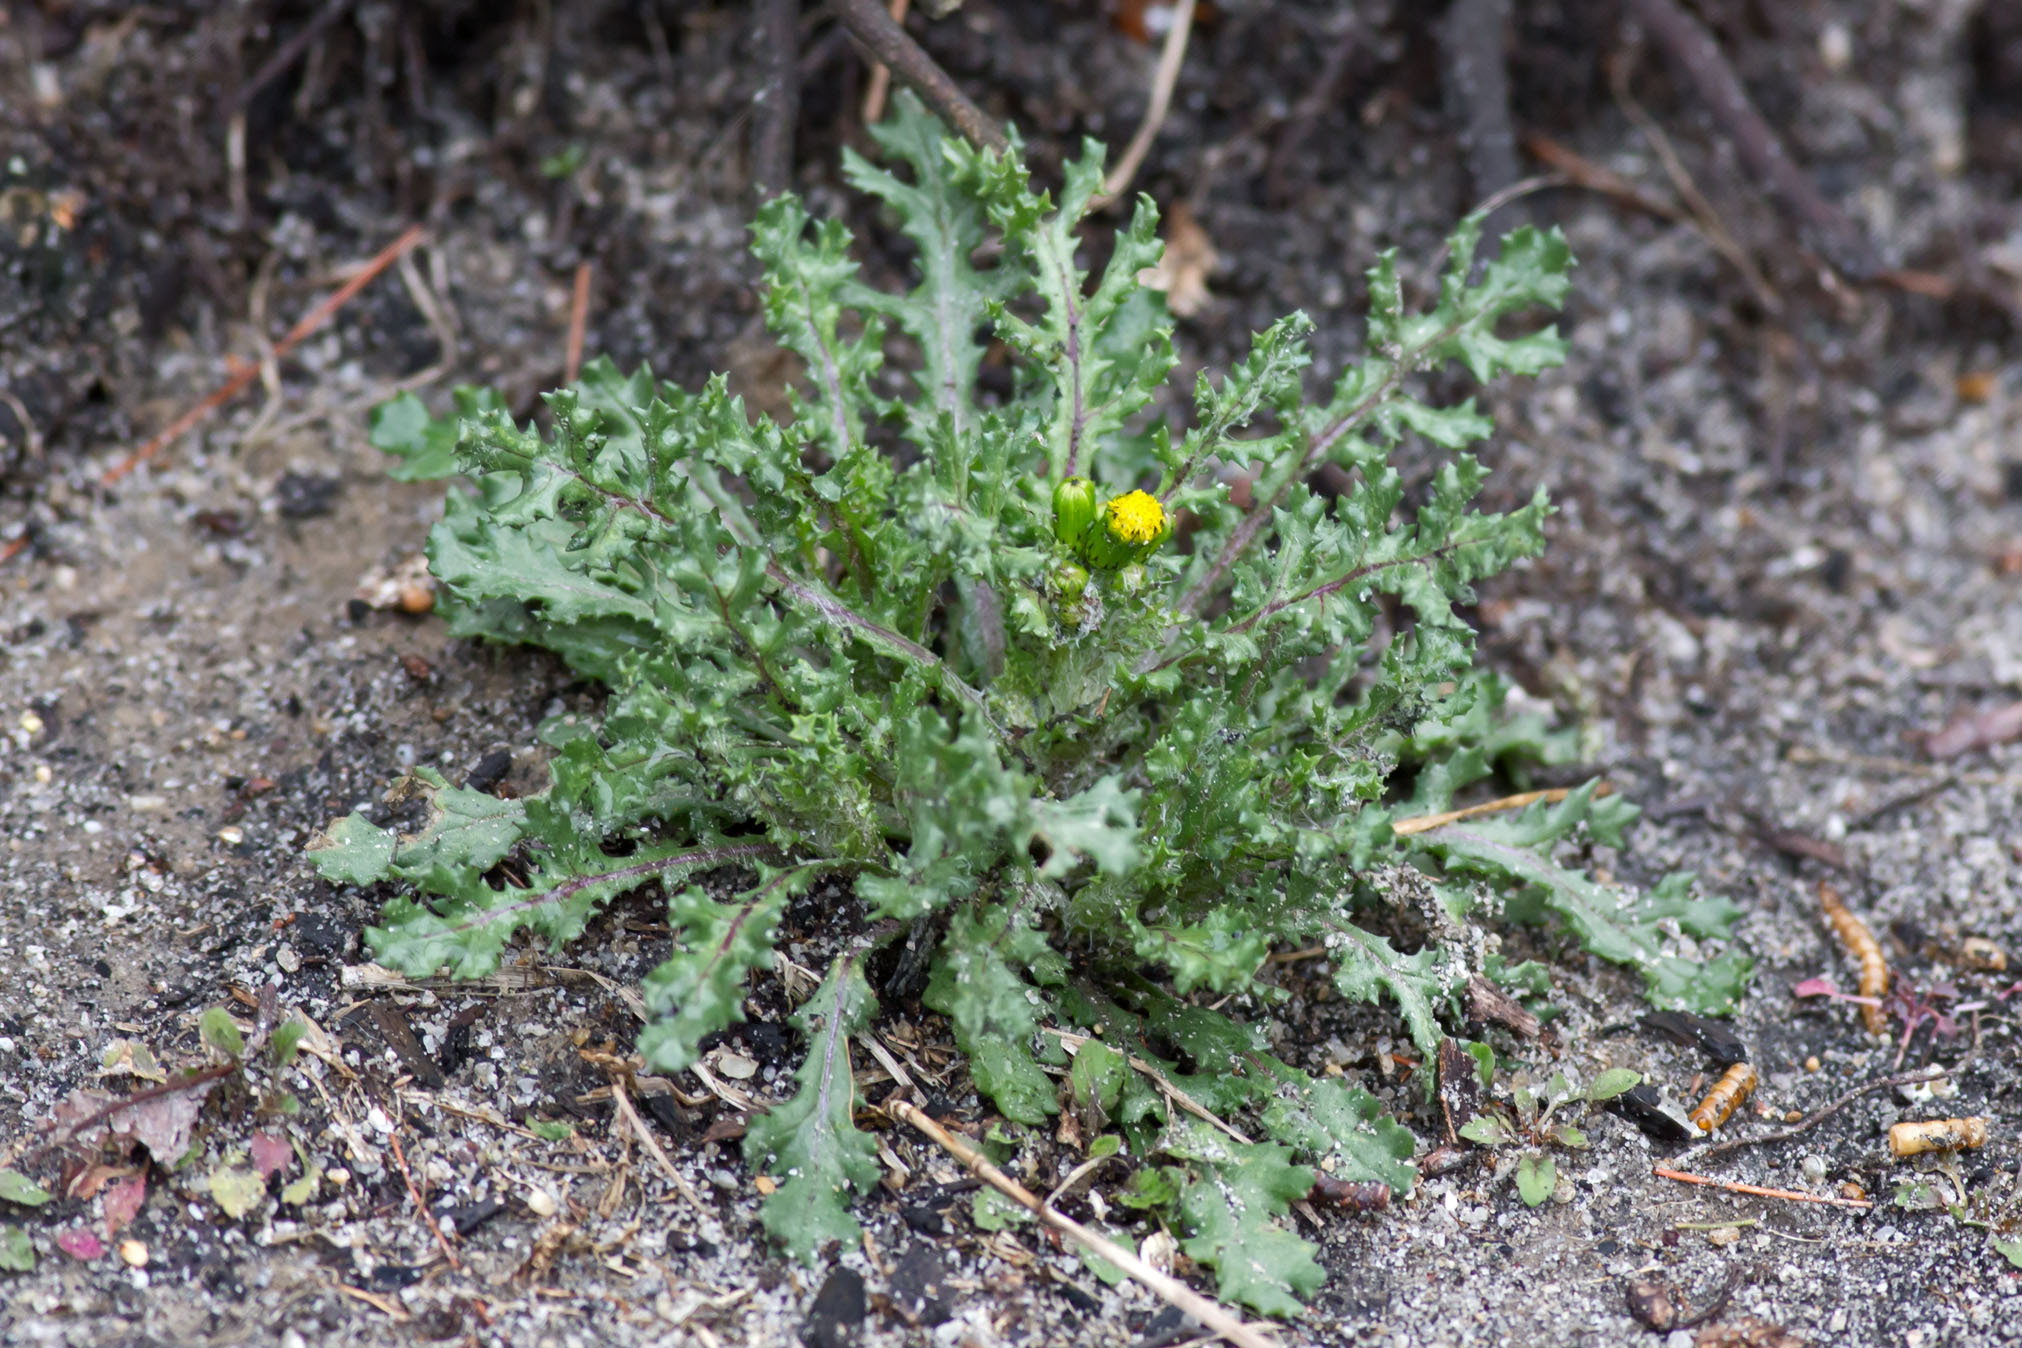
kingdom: Plantae
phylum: Tracheophyta
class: Magnoliopsida
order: Asterales
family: Asteraceae
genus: Senecio
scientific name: Senecio vulgaris
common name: Old-man-in-the-spring
